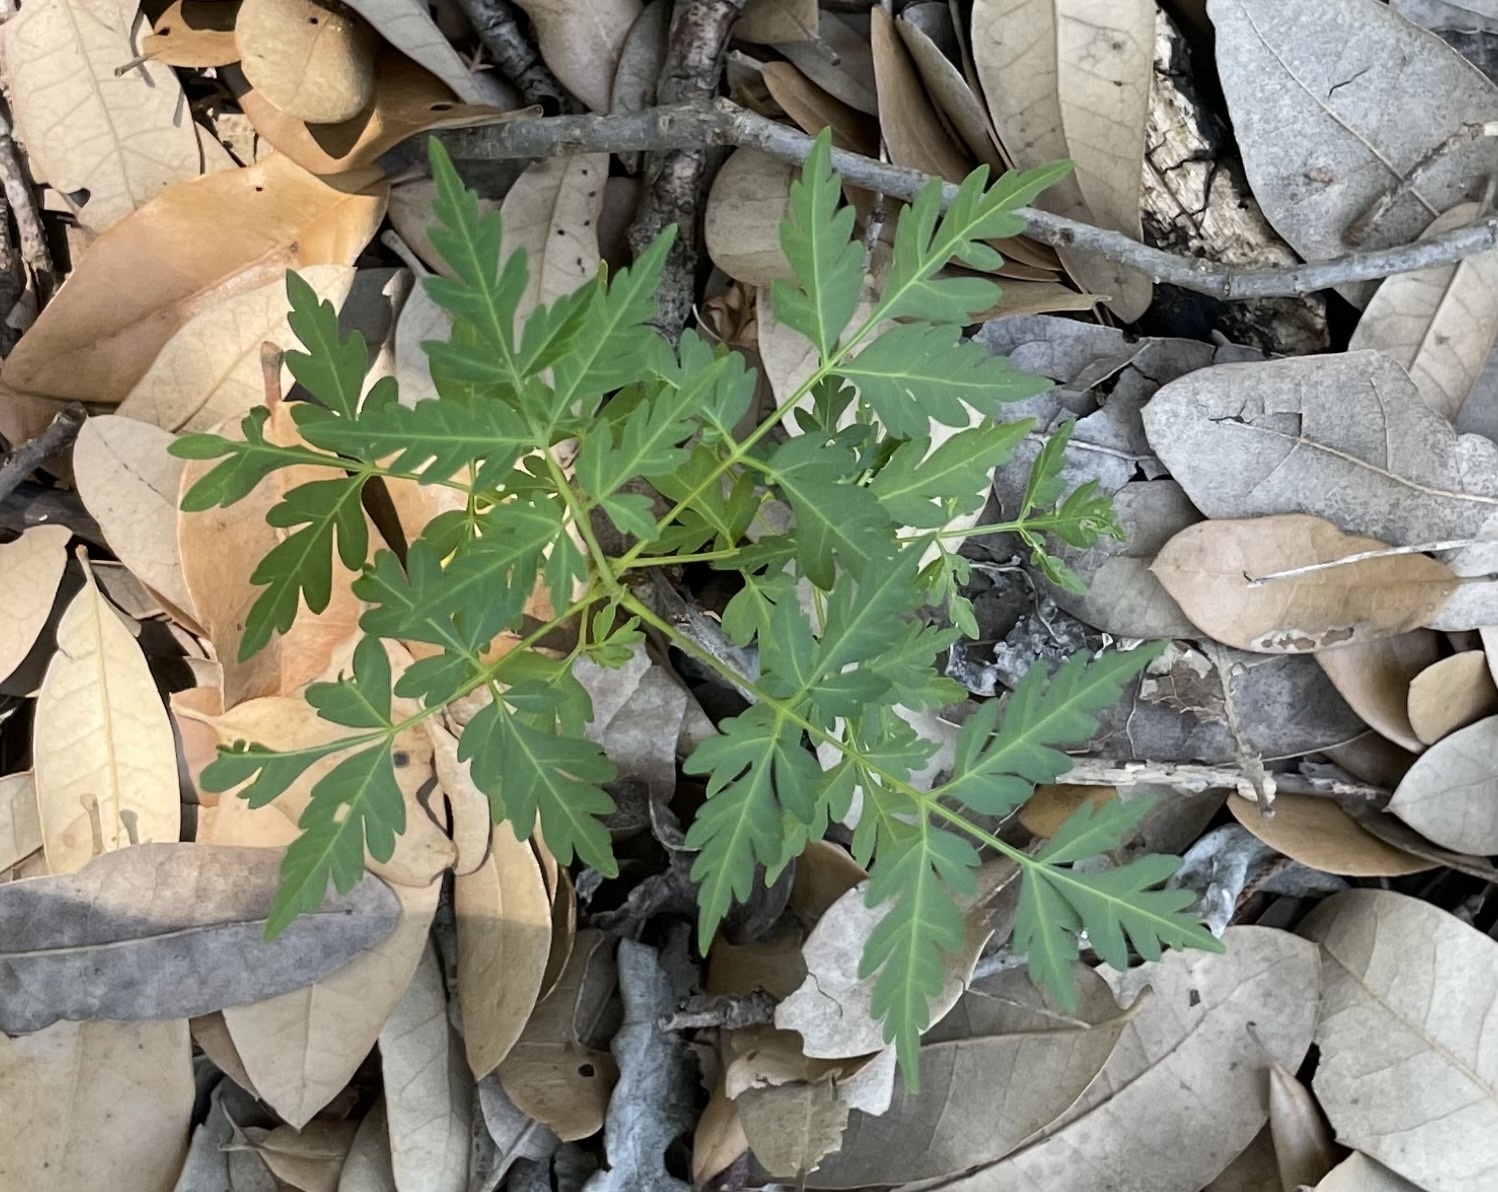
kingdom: Plantae
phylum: Tracheophyta
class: Magnoliopsida
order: Sapindales
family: Meliaceae
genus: Melia
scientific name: Melia azedarach
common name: Chinaberrytree
